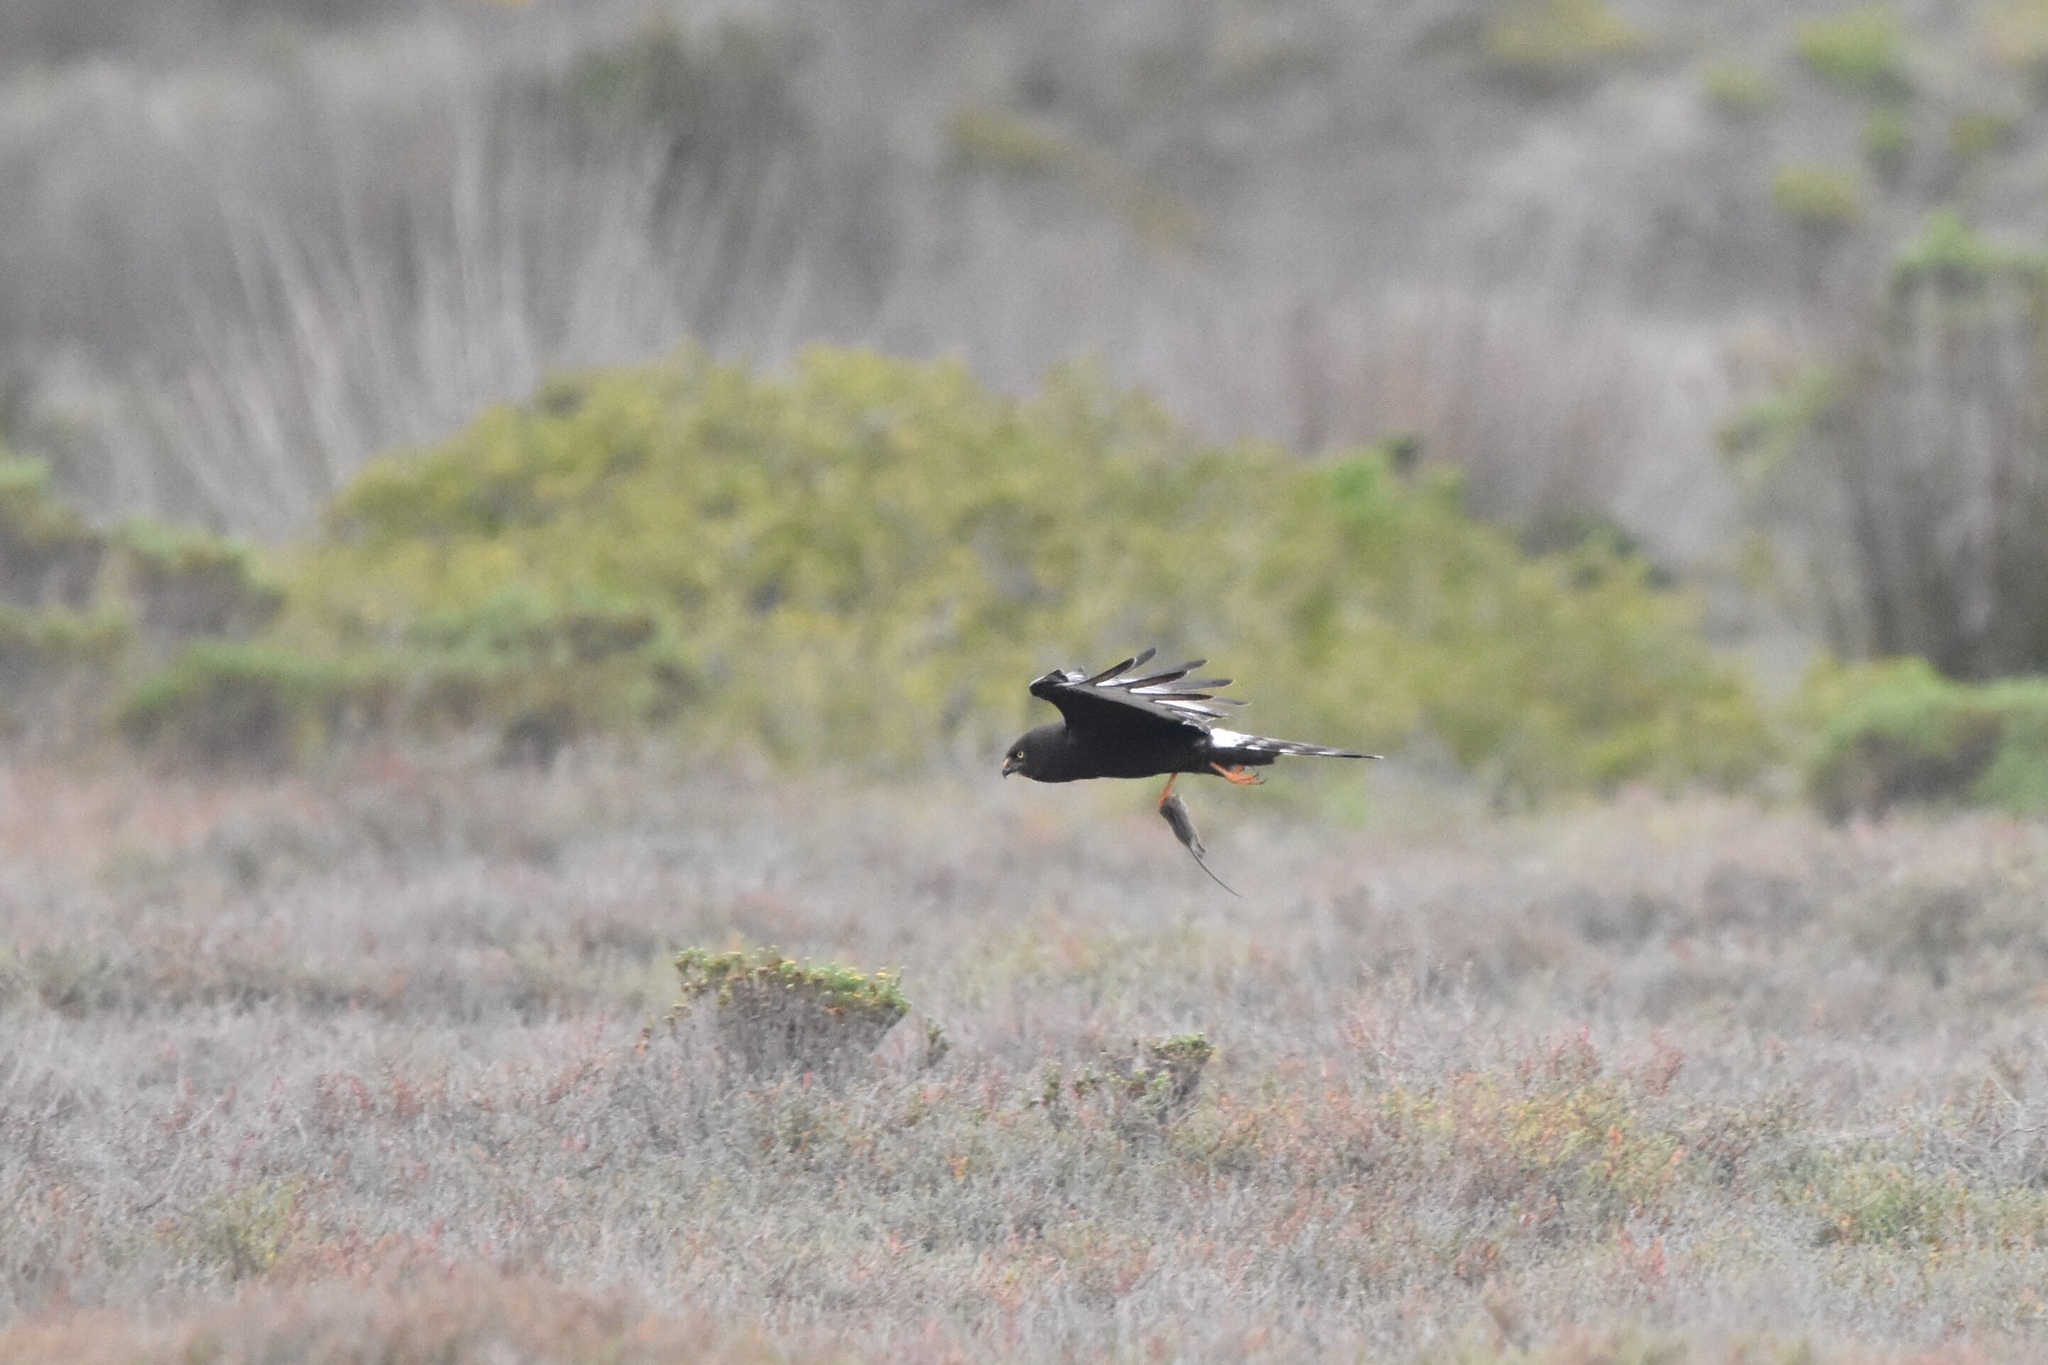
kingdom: Animalia
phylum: Chordata
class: Aves
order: Accipitriformes
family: Accipitridae
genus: Circus
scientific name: Circus maurus
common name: Black harrier
